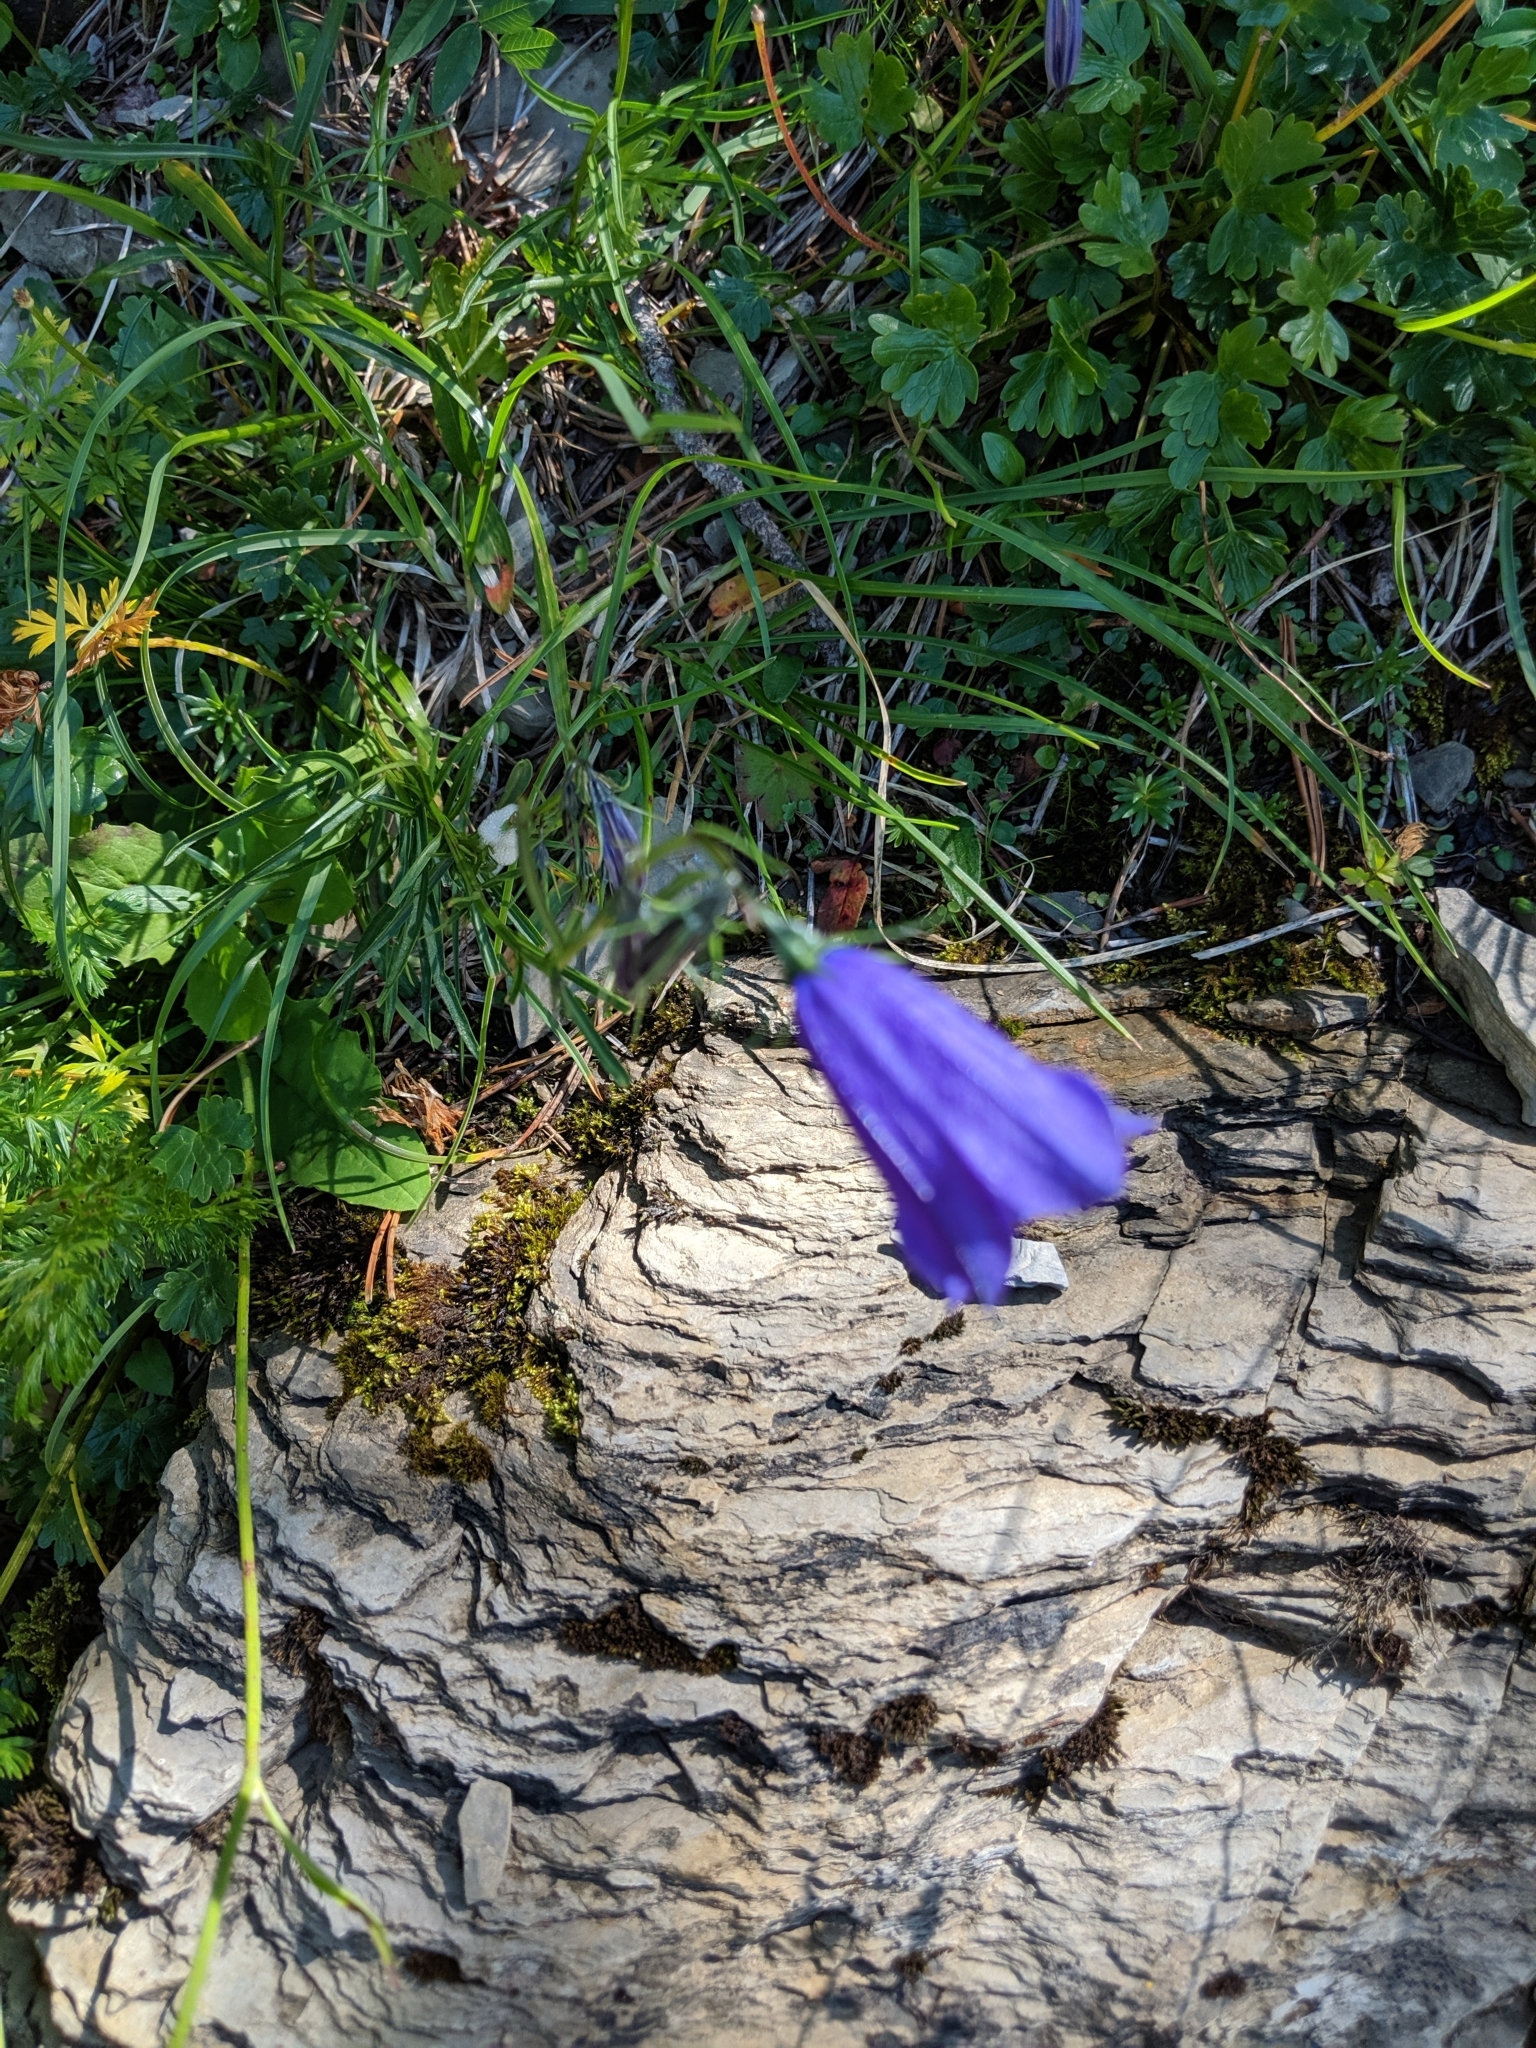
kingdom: Plantae
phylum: Tracheophyta
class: Magnoliopsida
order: Asterales
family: Campanulaceae
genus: Campanula
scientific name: Campanula
